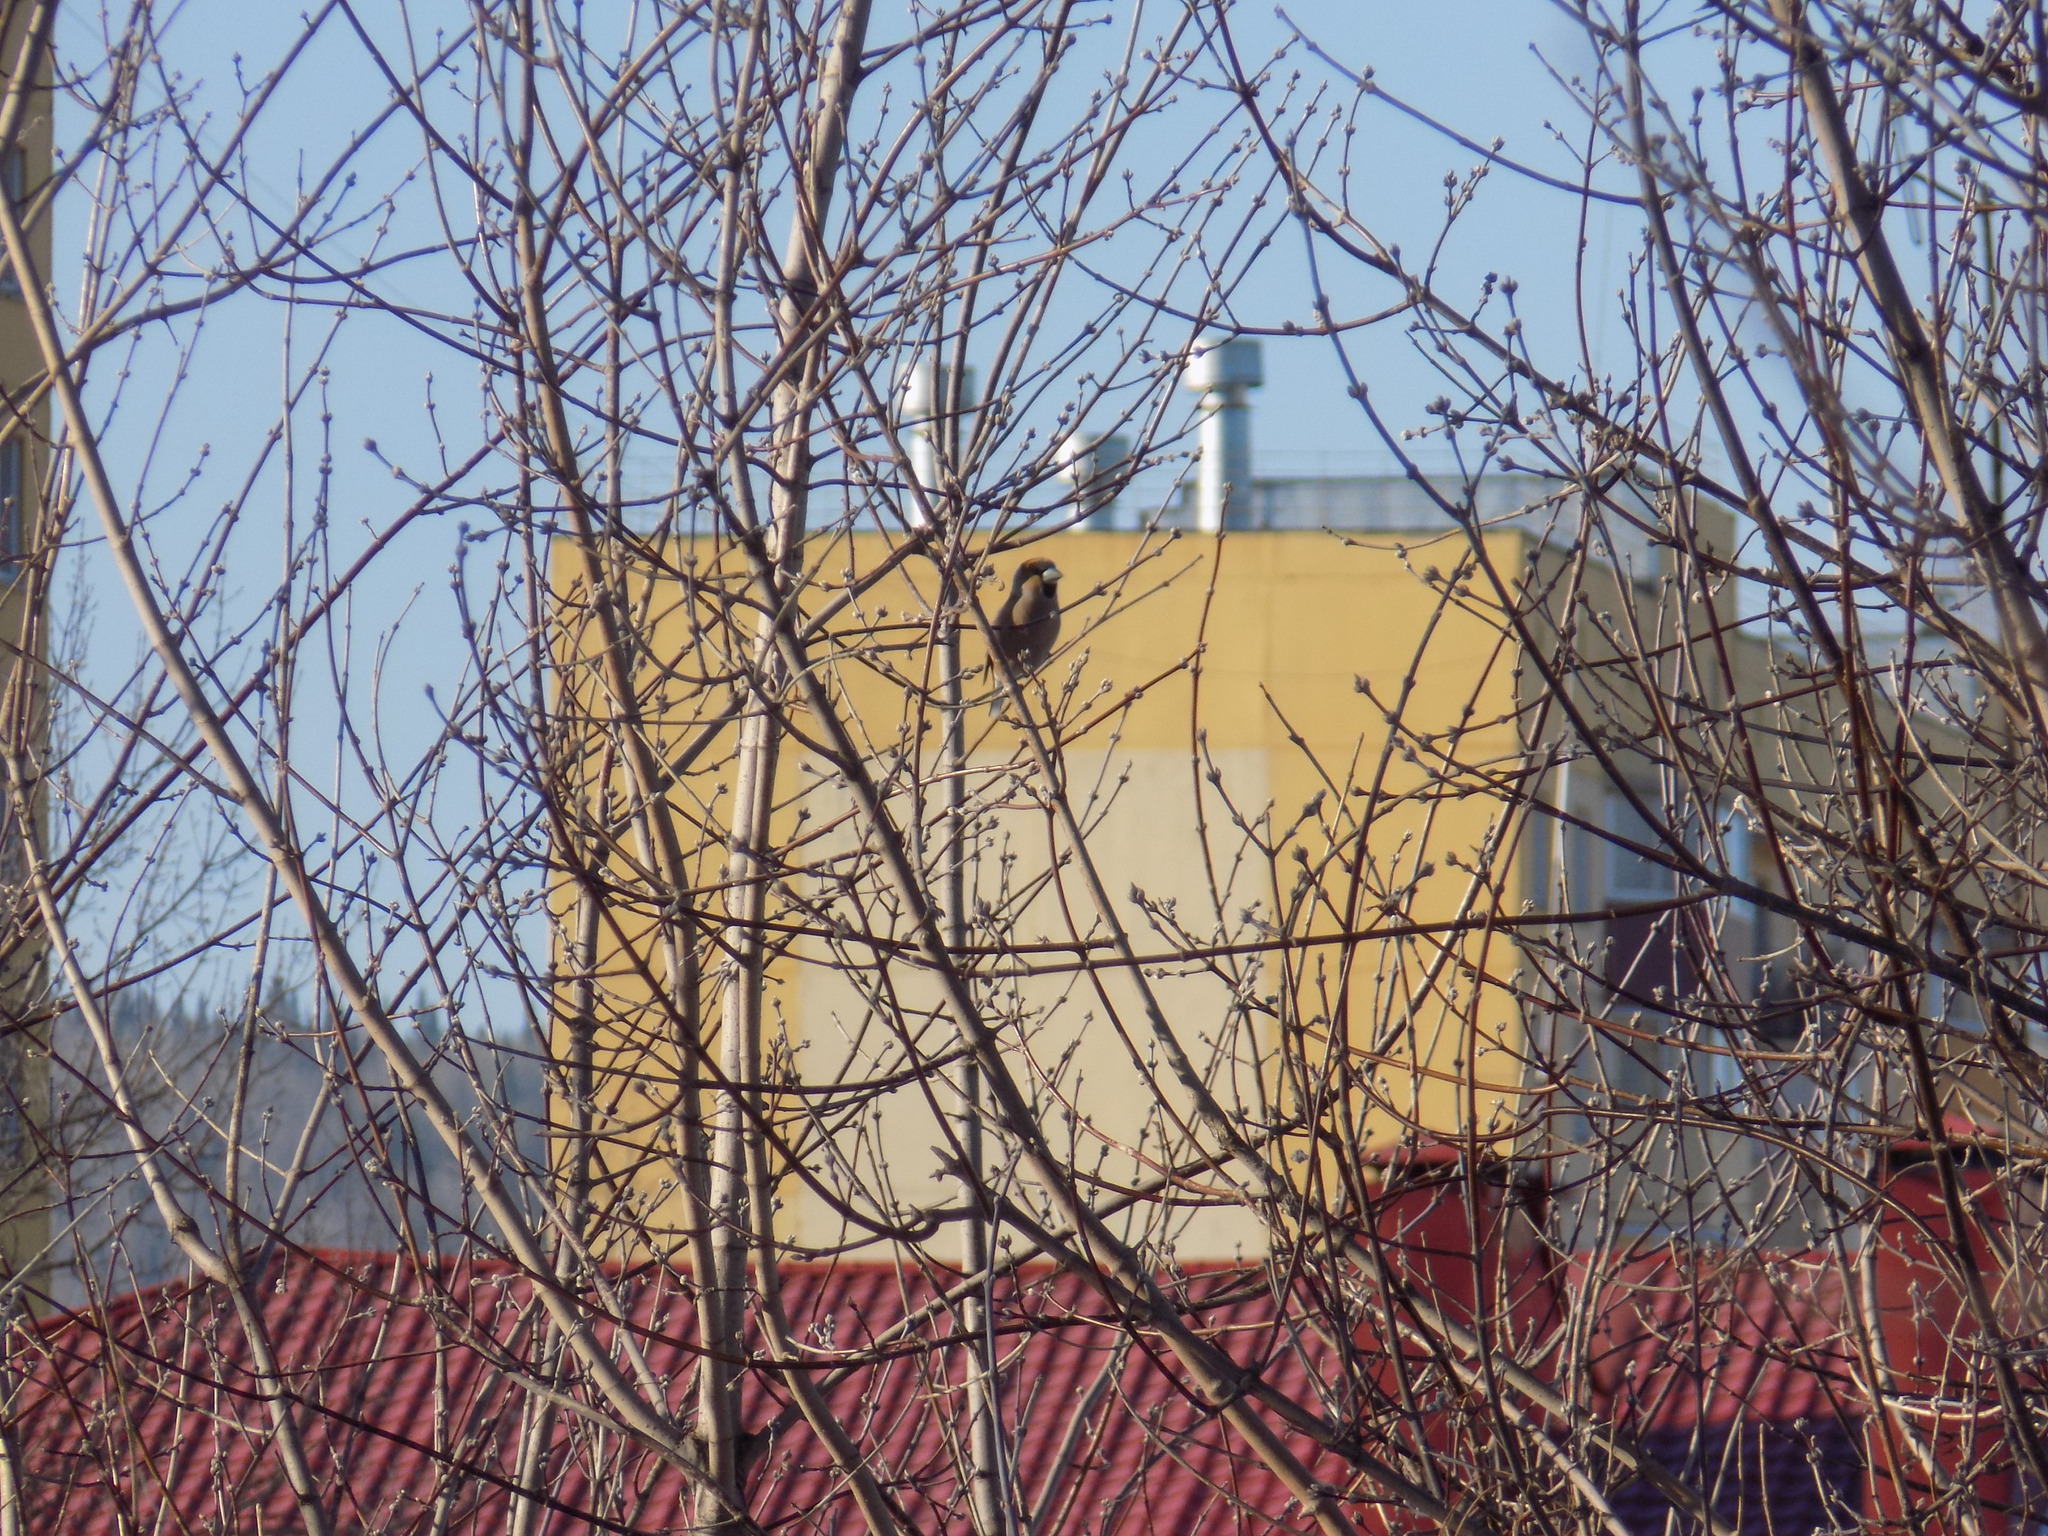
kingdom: Animalia
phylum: Chordata
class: Aves
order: Passeriformes
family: Fringillidae
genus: Coccothraustes
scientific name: Coccothraustes coccothraustes
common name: Hawfinch
